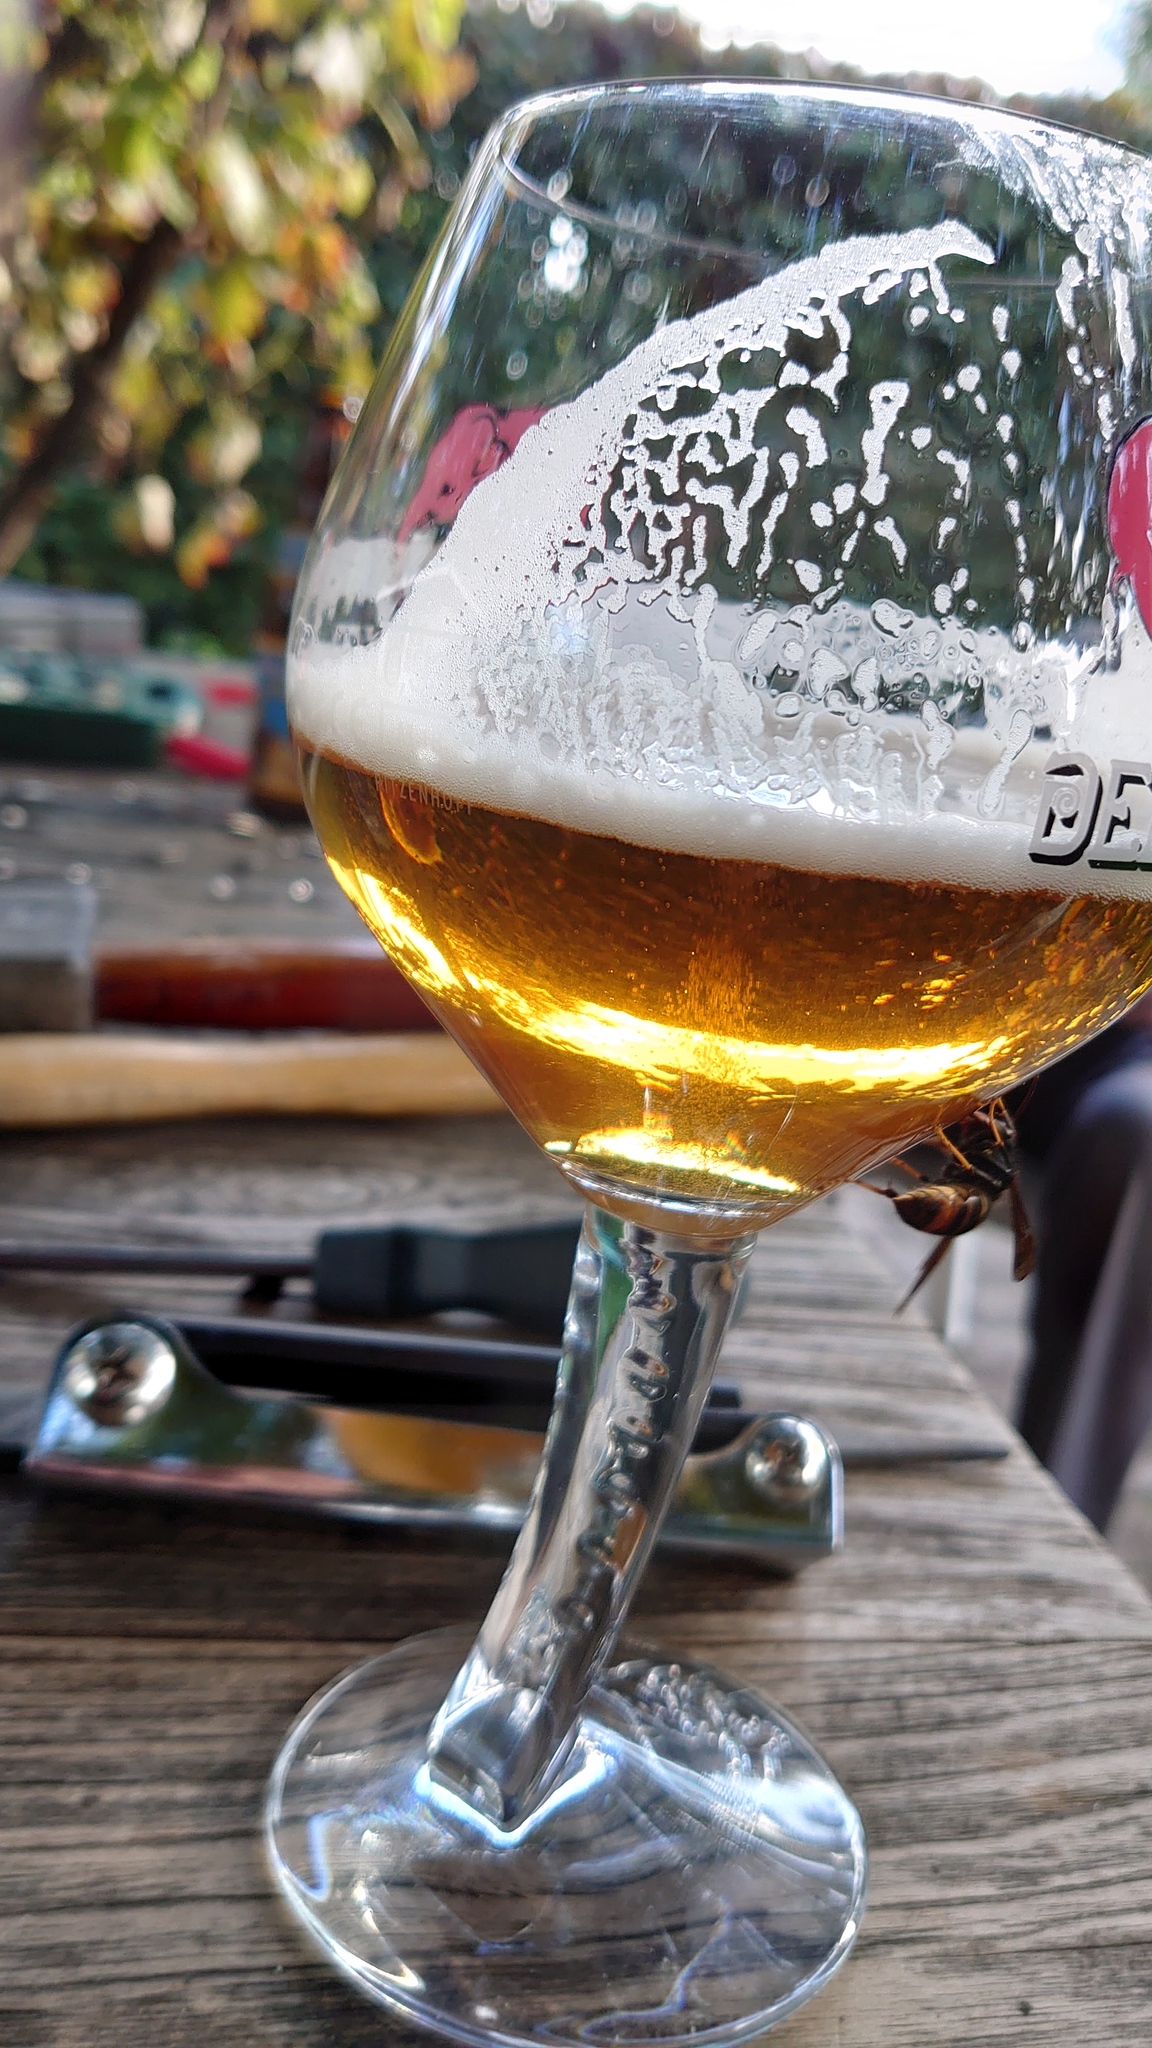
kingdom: Animalia
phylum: Arthropoda
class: Insecta
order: Hymenoptera
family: Vespidae
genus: Vespa
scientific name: Vespa velutina
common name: Asian hornet
